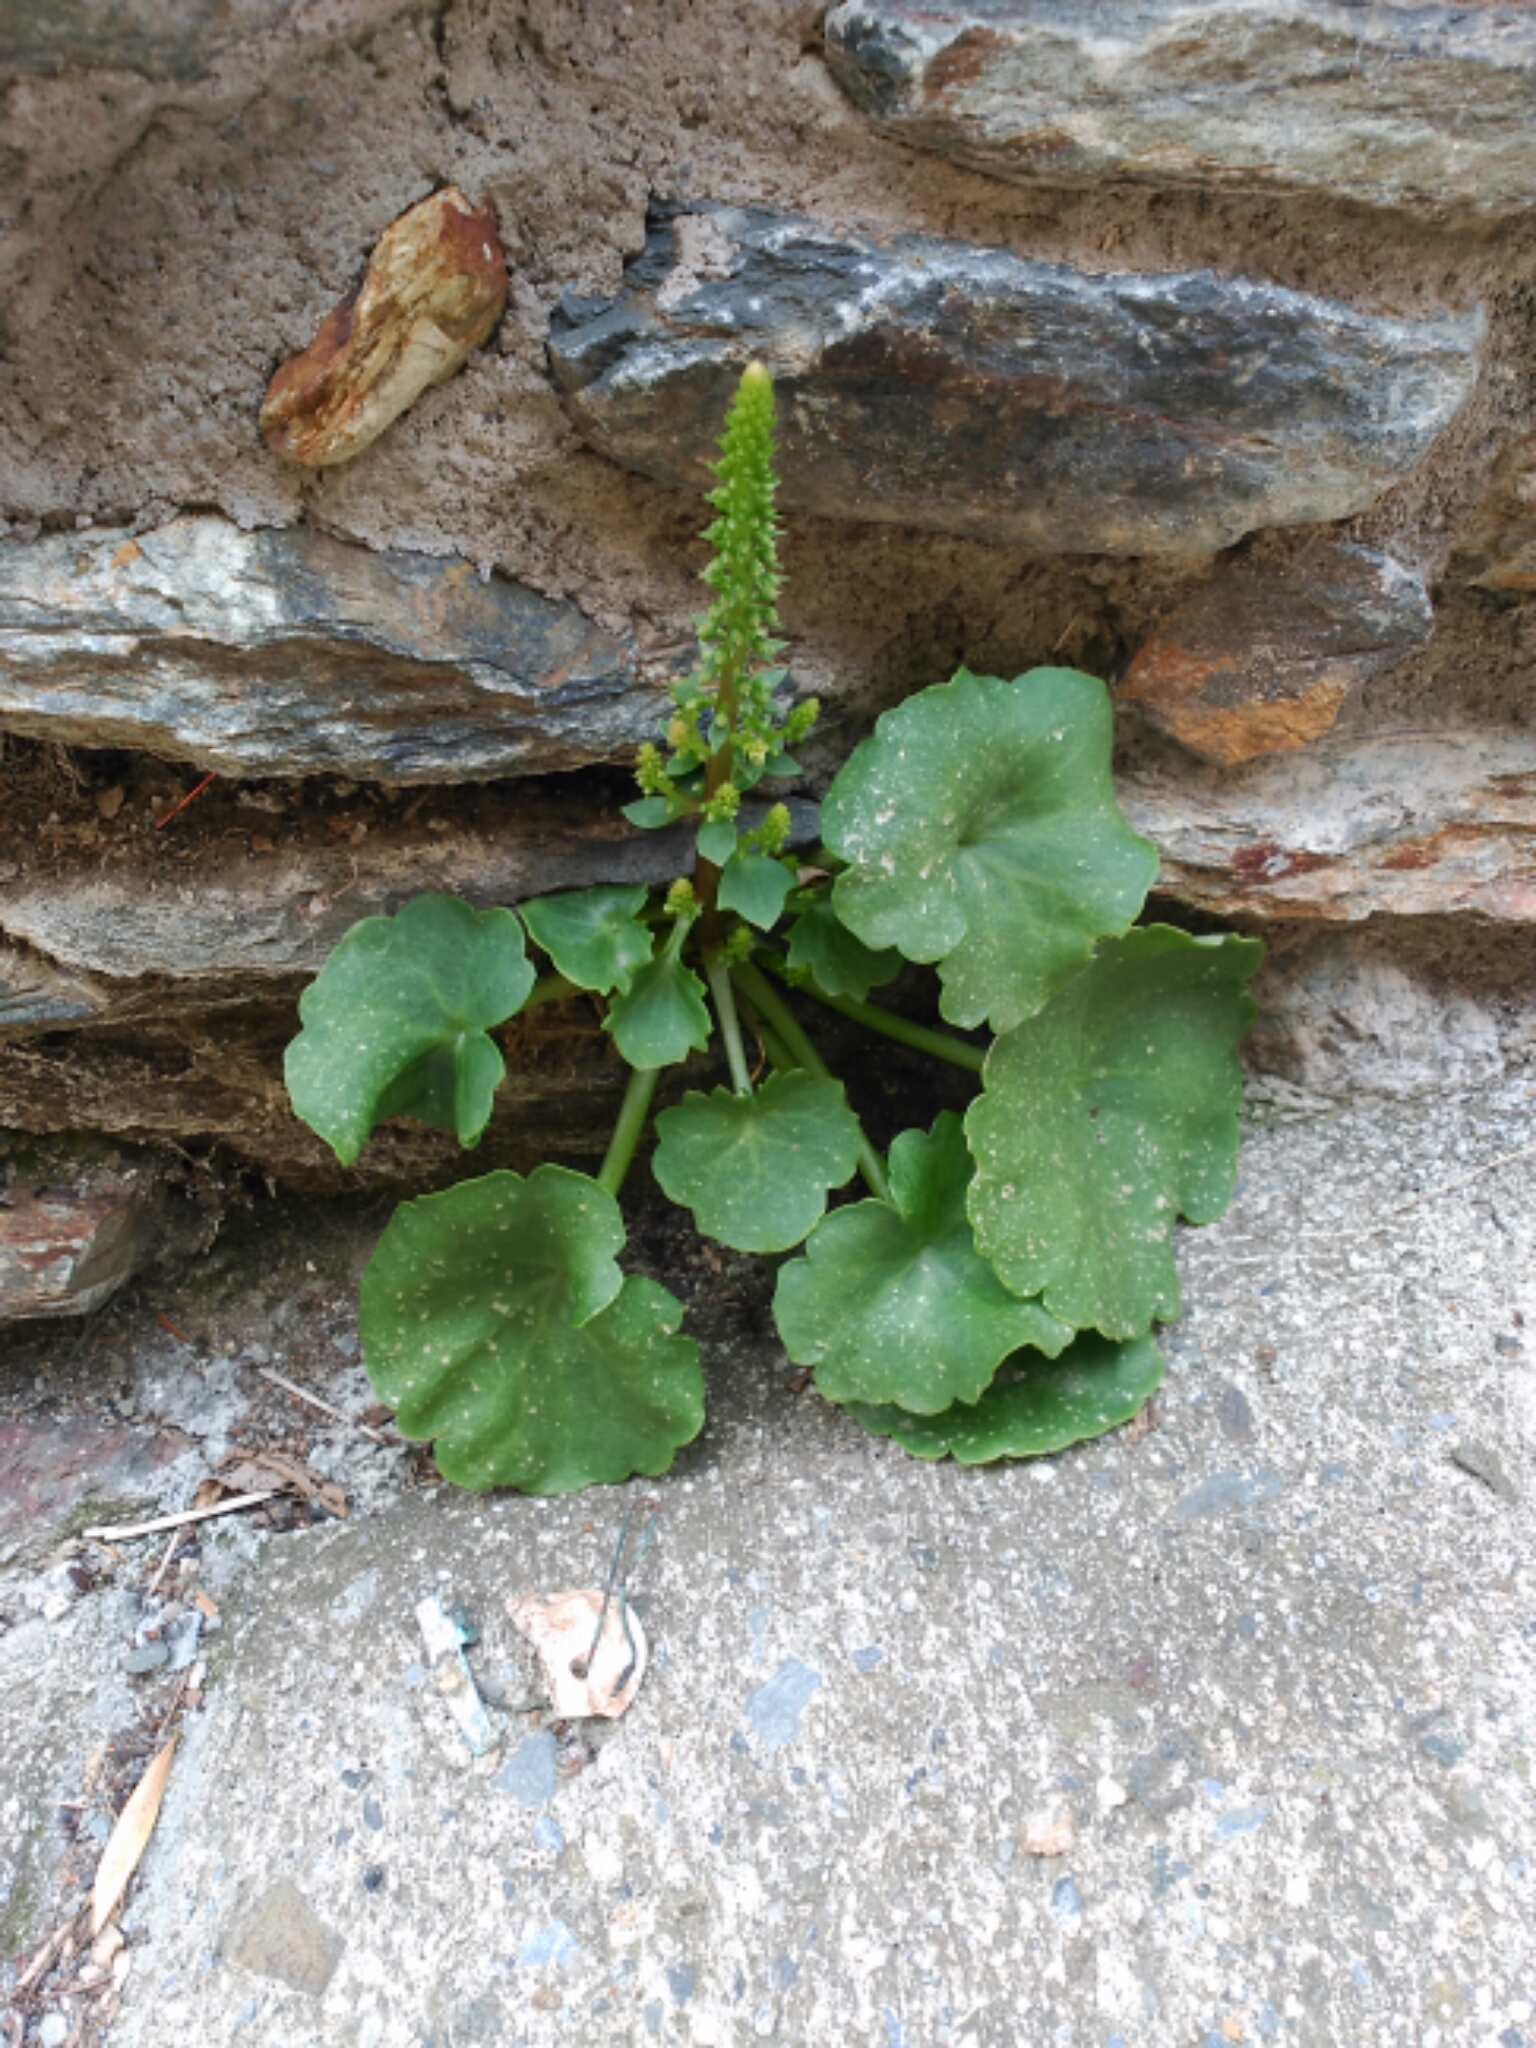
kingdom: Plantae
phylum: Tracheophyta
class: Magnoliopsida
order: Saxifragales
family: Crassulaceae
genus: Umbilicus
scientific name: Umbilicus rupestris
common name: Navelwort
